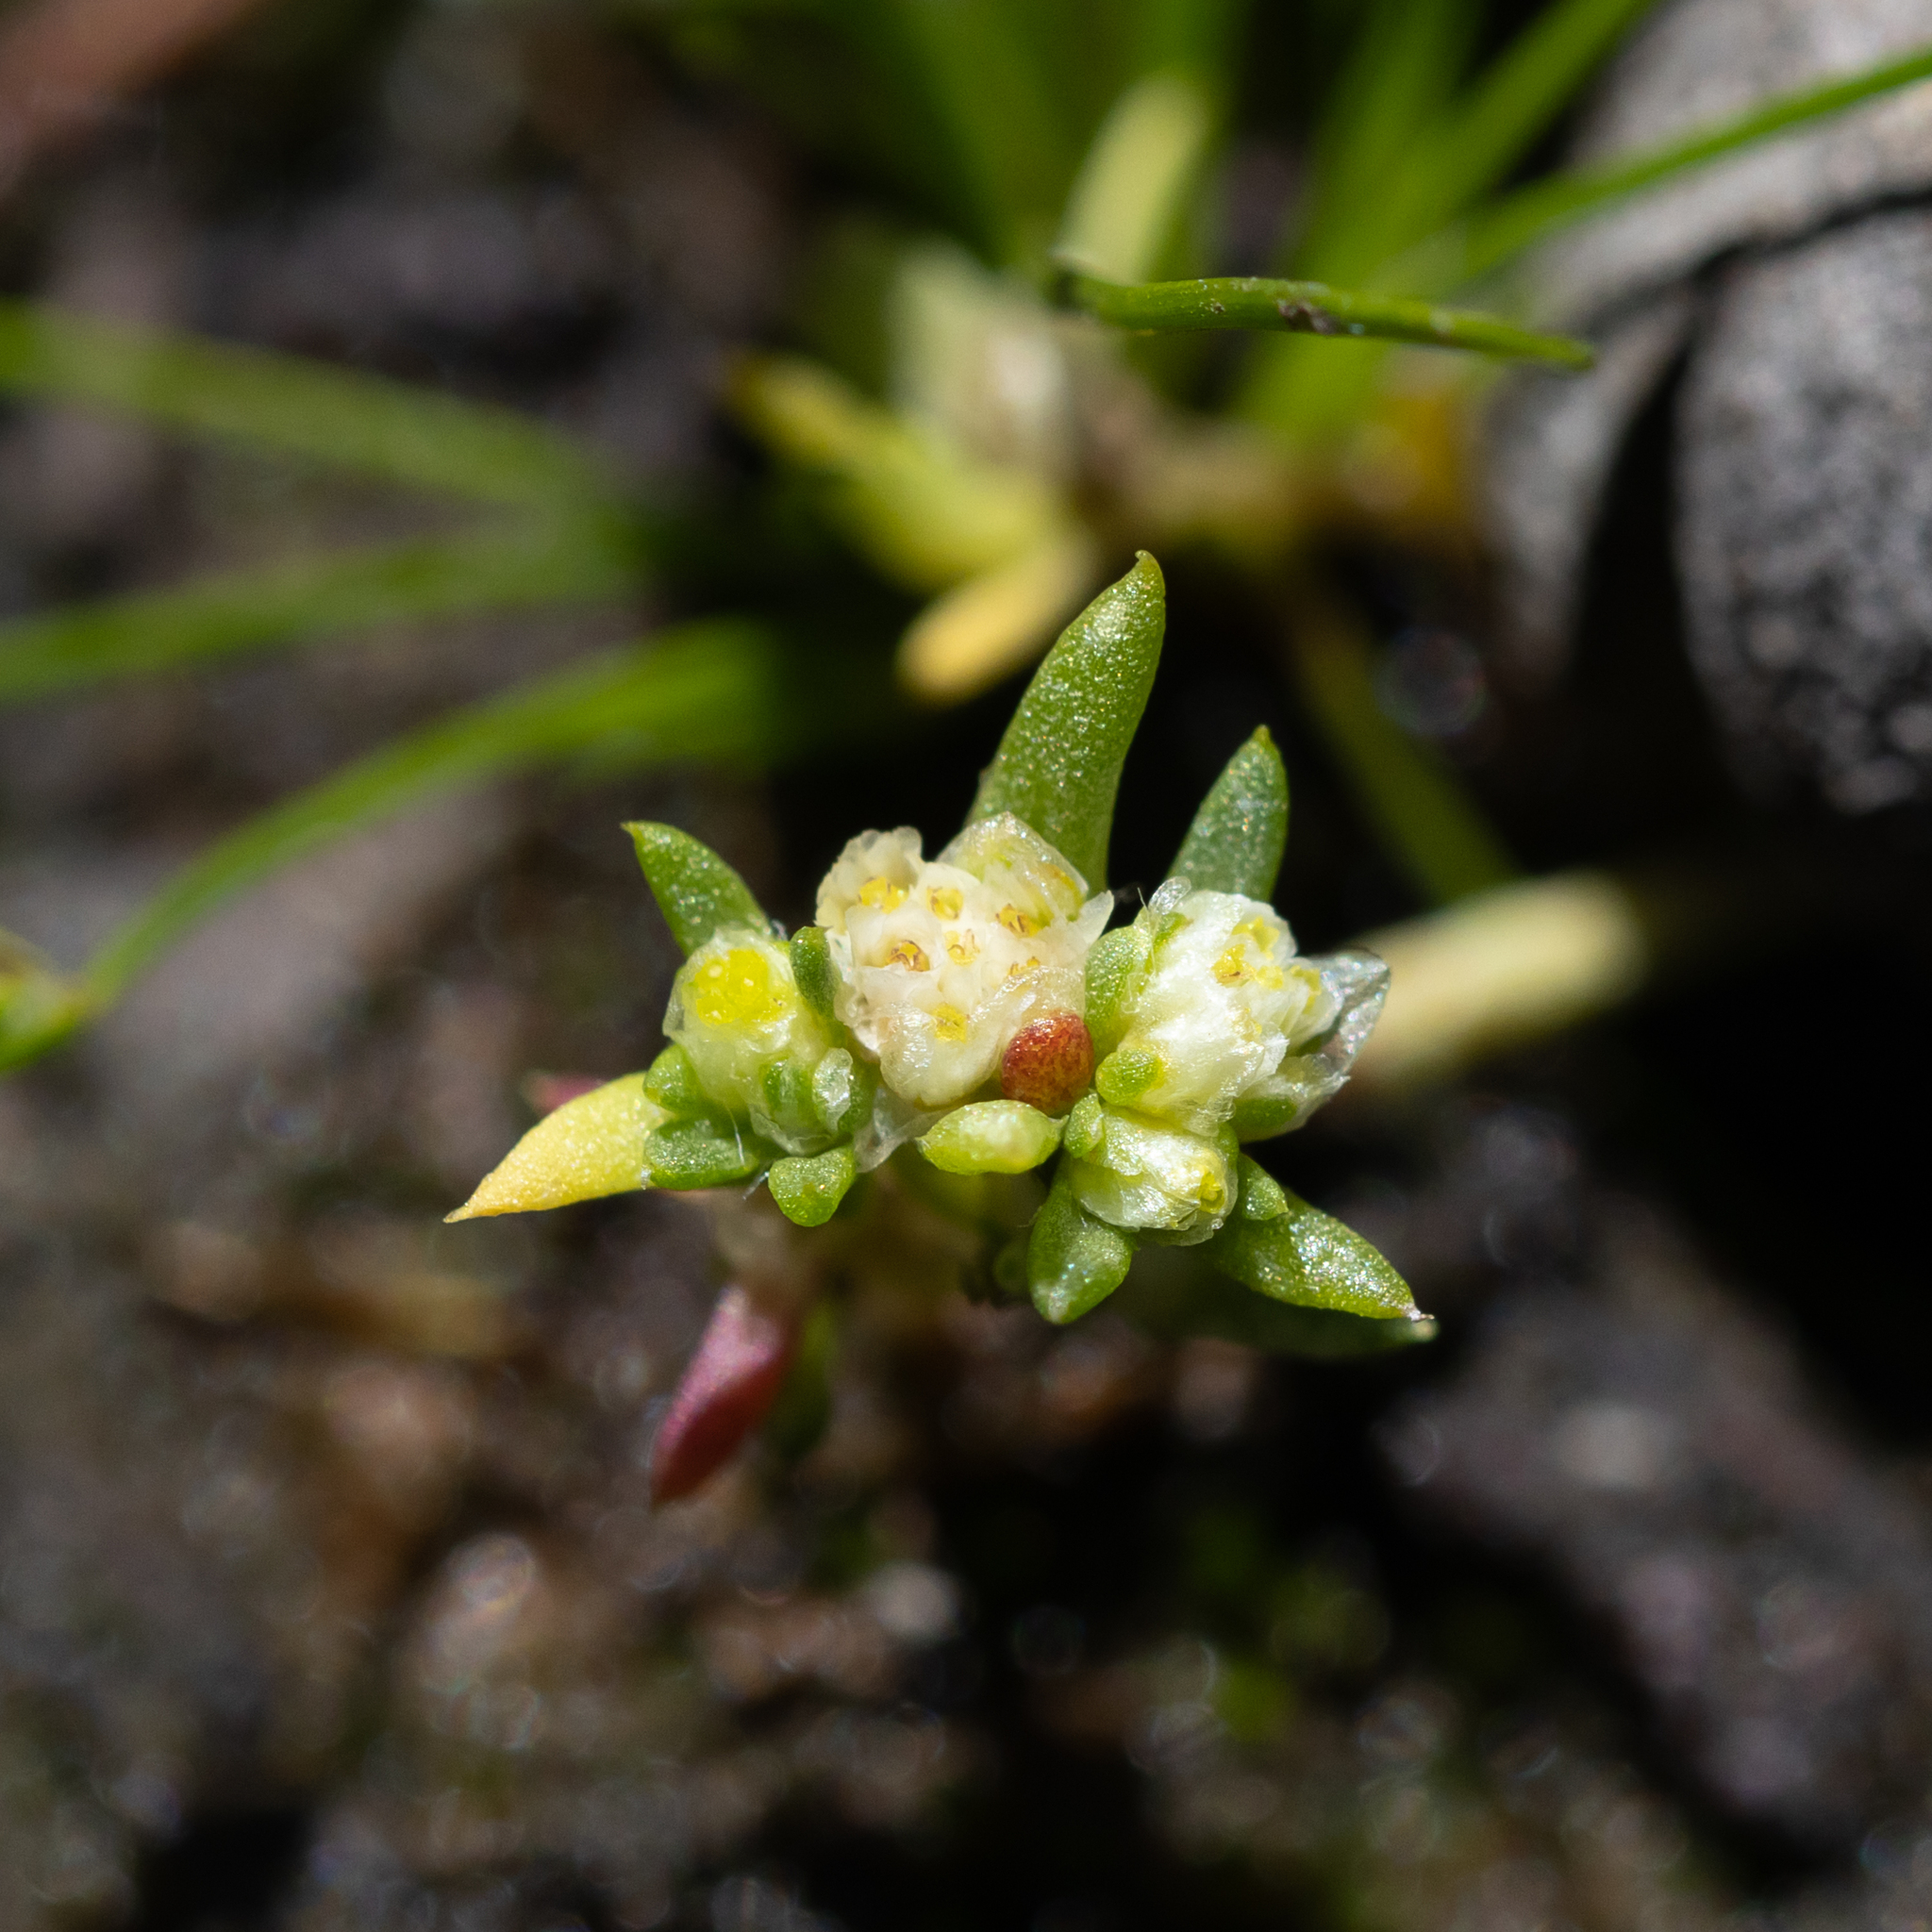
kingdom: Plantae
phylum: Tracheophyta
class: Magnoliopsida
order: Asterales
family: Asteraceae
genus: Siloxerus
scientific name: Siloxerus multiflorus
